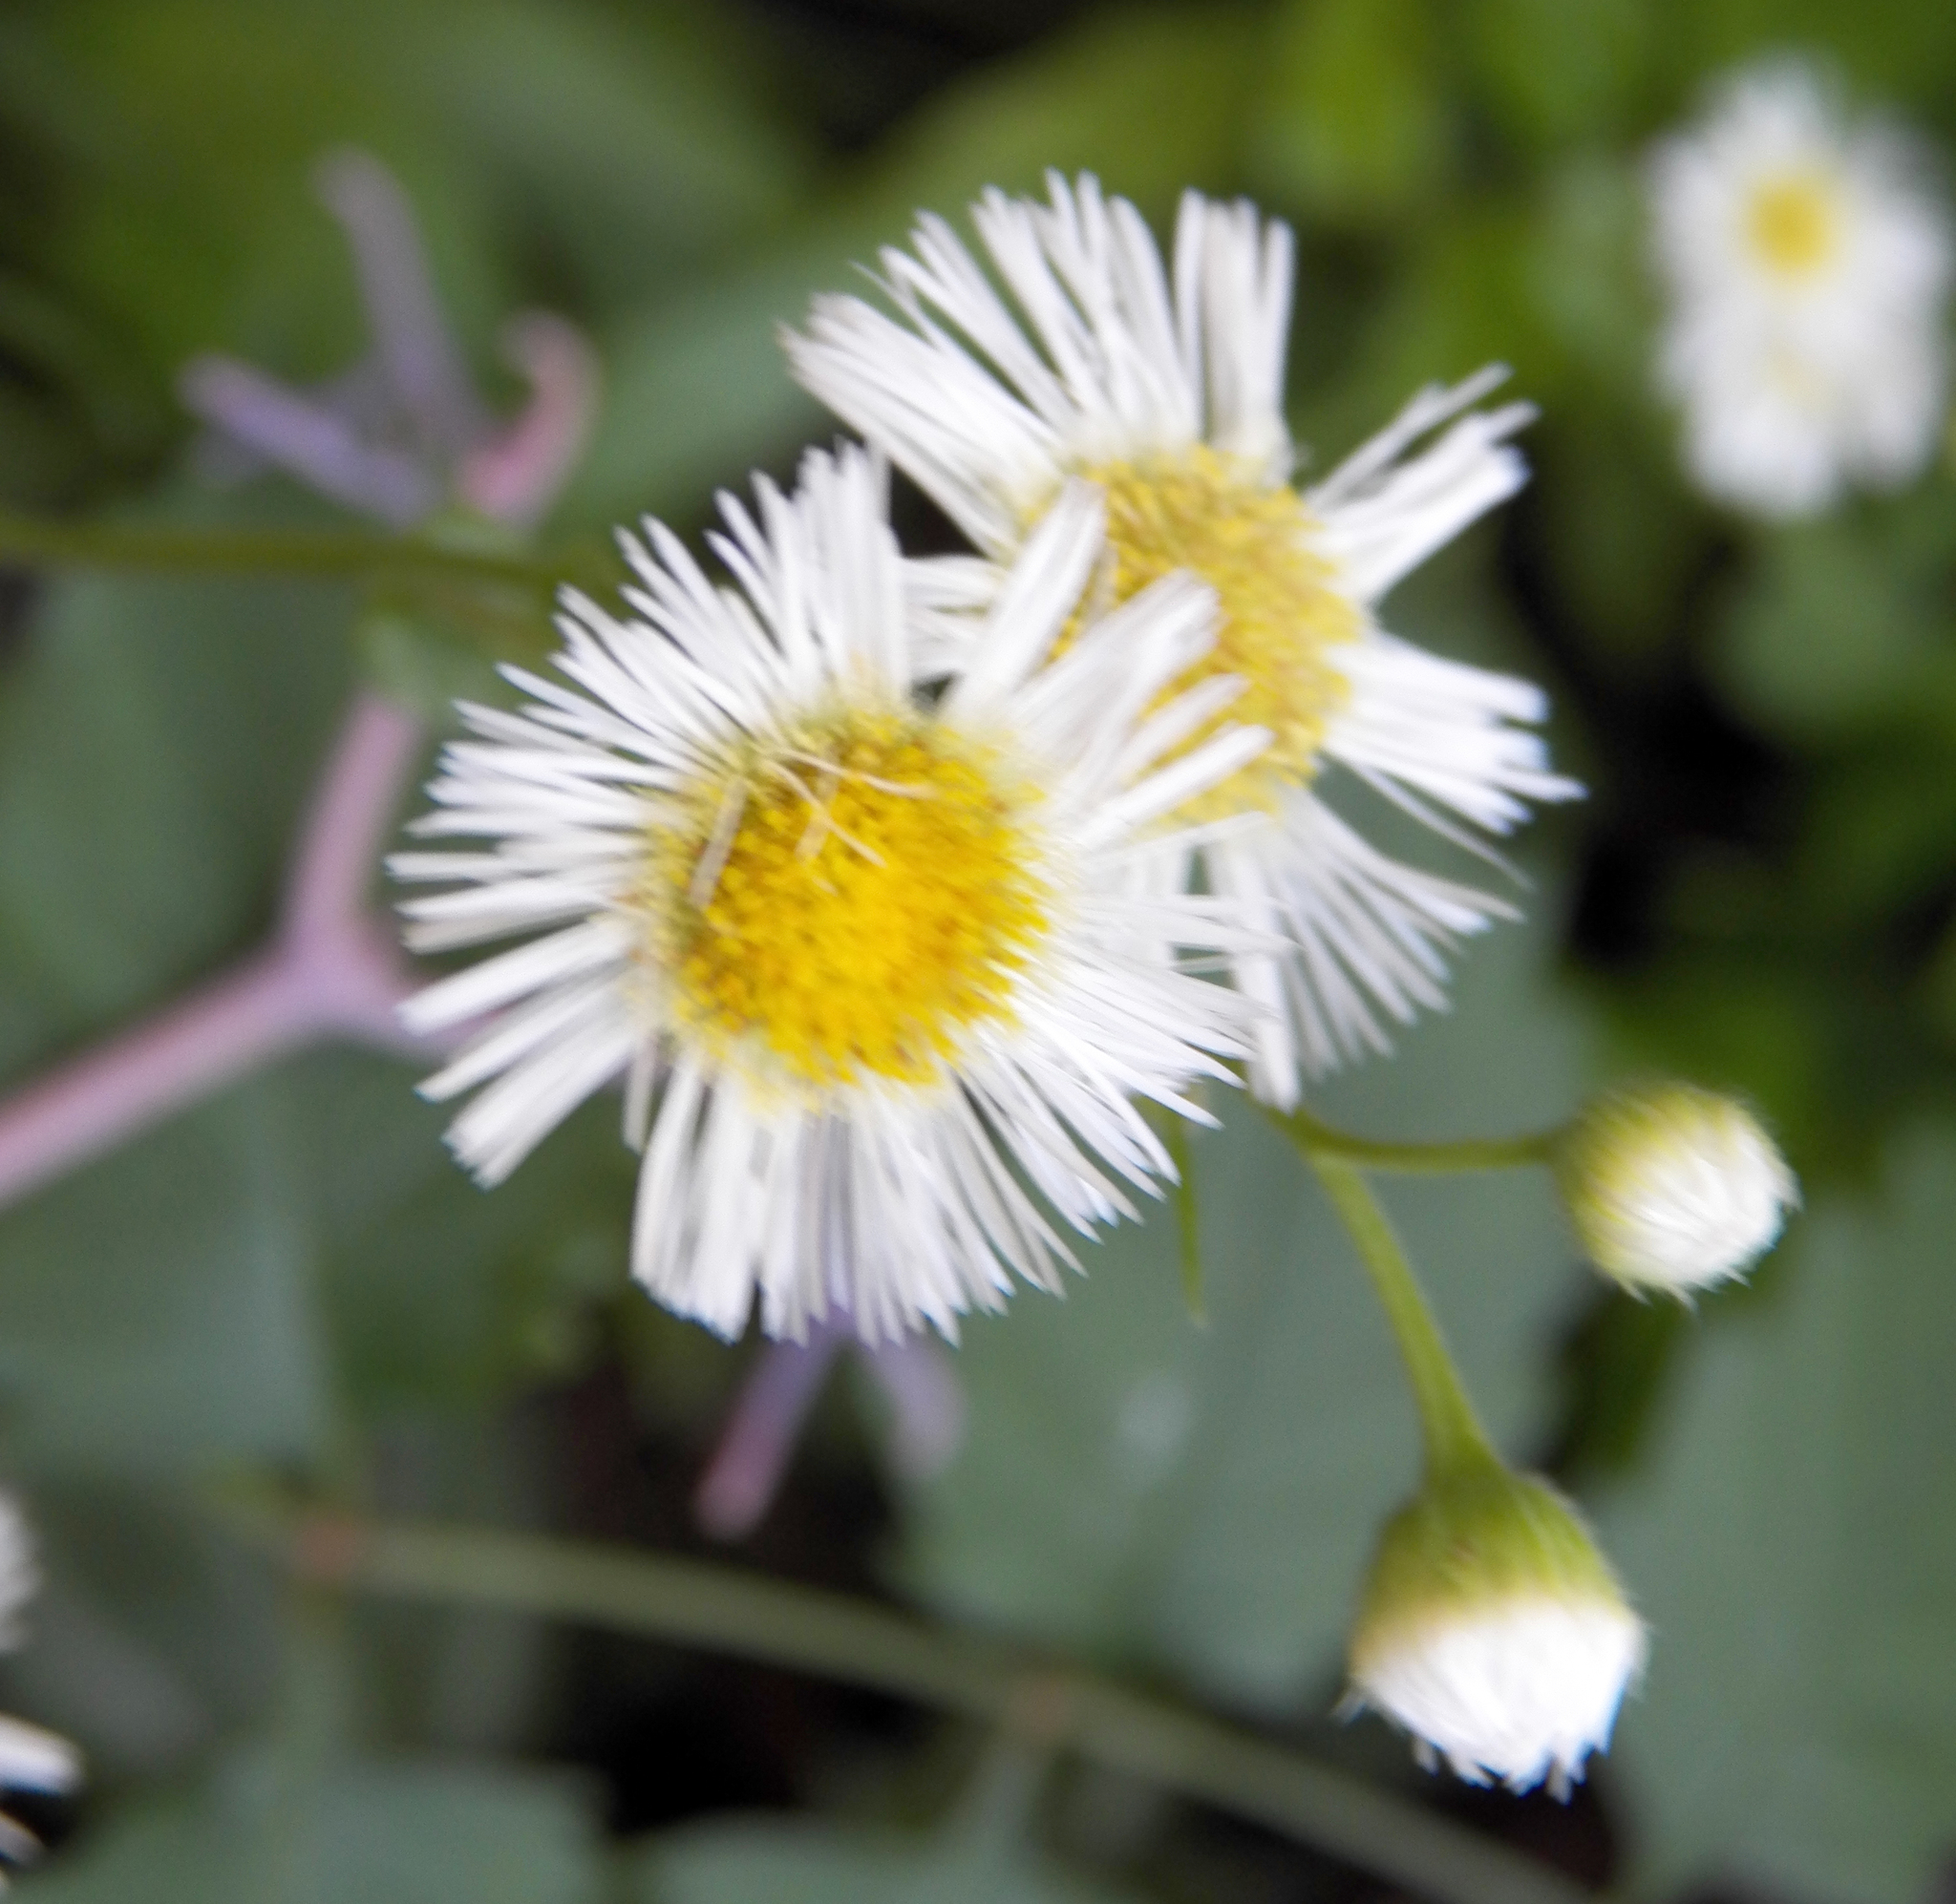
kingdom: Plantae
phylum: Tracheophyta
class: Magnoliopsida
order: Asterales
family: Asteraceae
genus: Erigeron
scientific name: Erigeron philadelphicus
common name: Robin's-plantain
